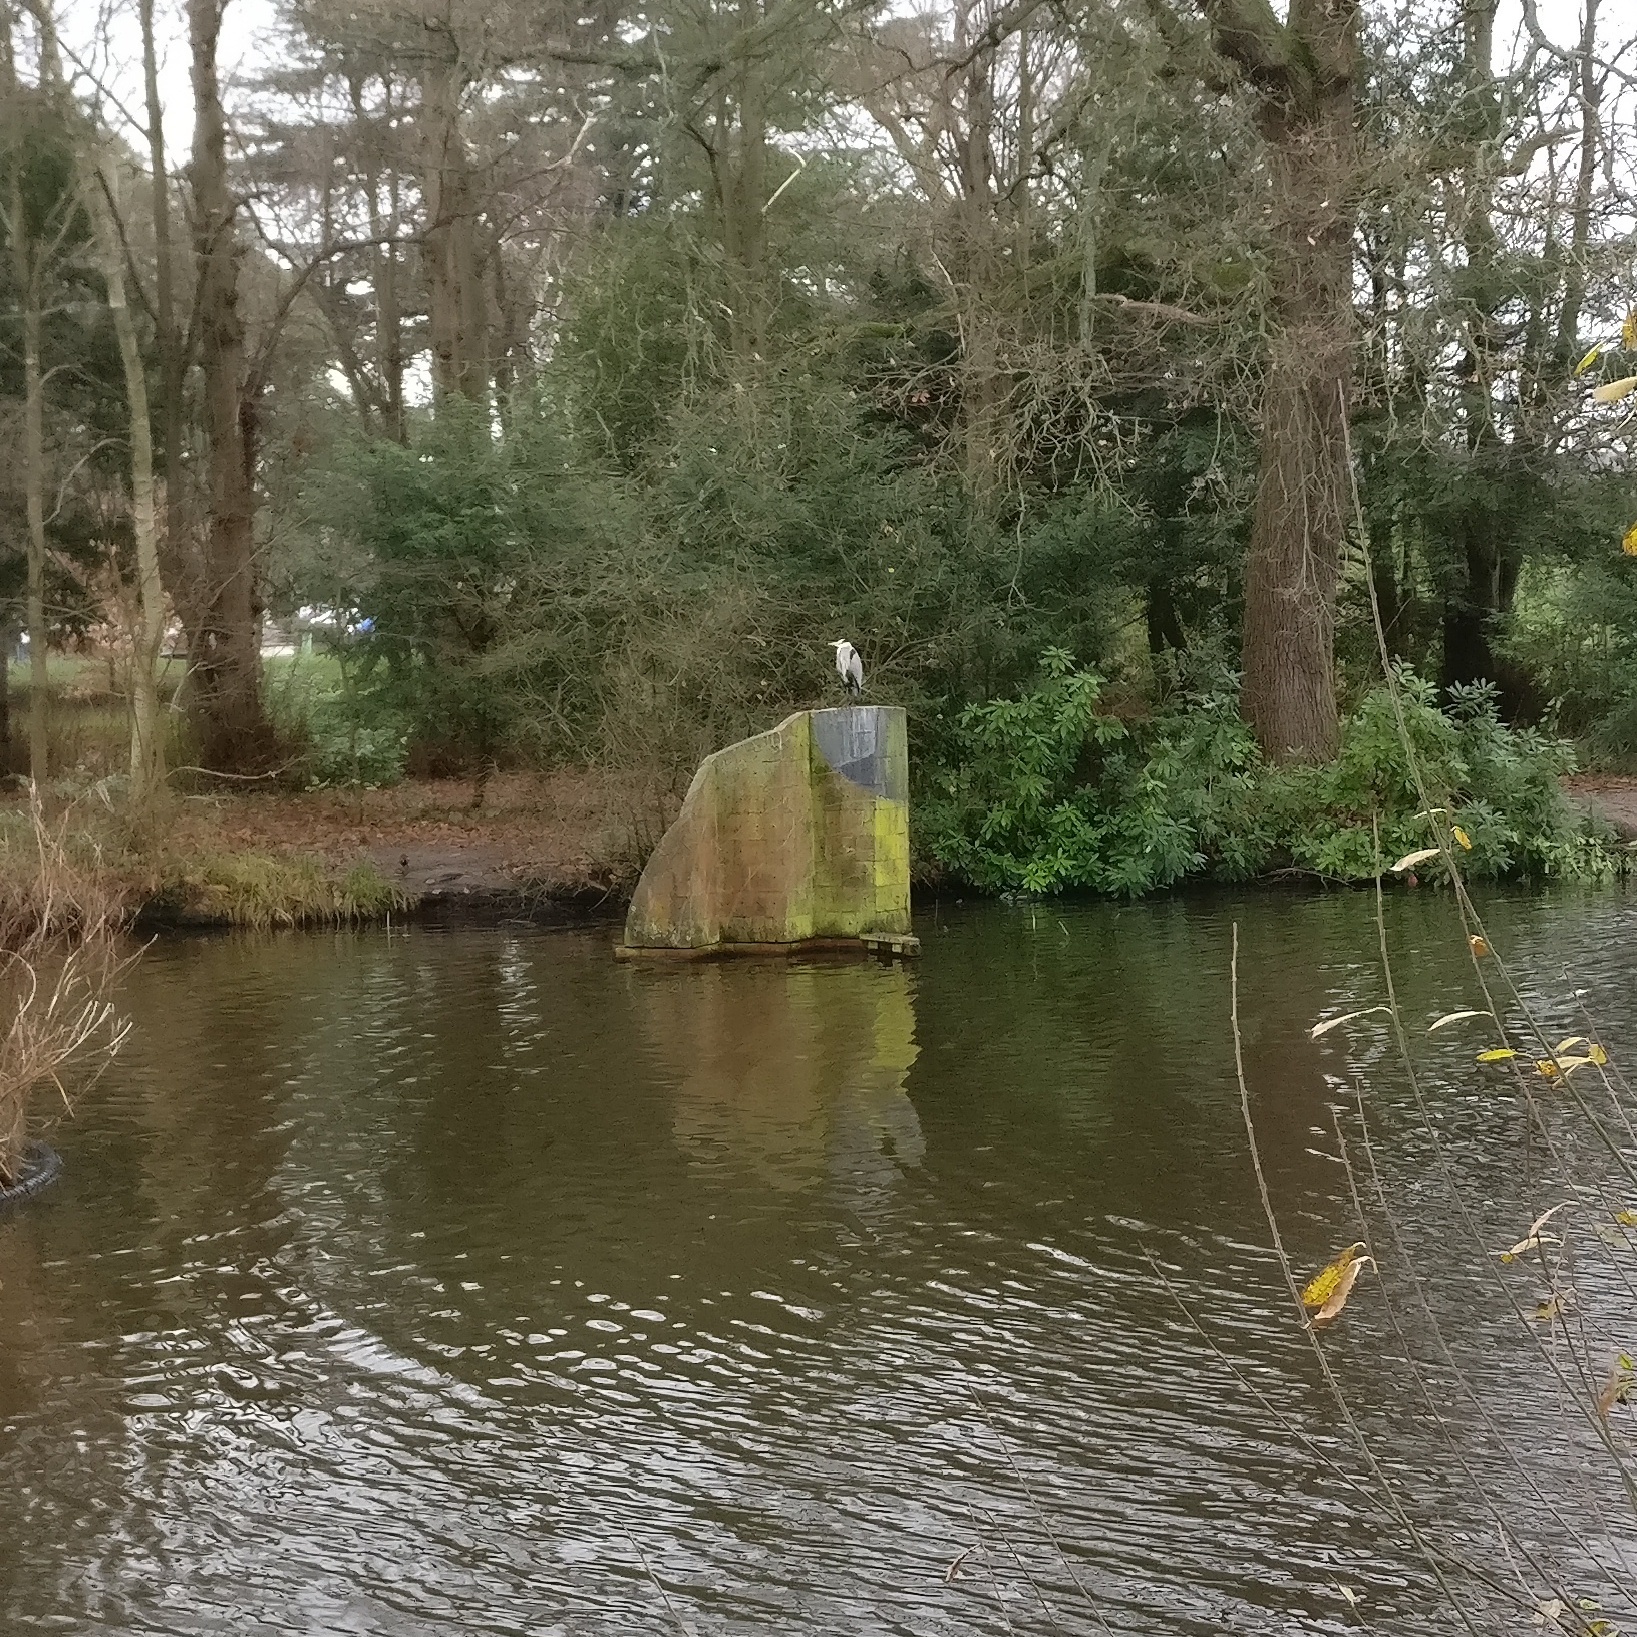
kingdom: Animalia
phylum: Chordata
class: Aves
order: Pelecaniformes
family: Ardeidae
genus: Ardea
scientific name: Ardea cinerea
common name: Grey heron
